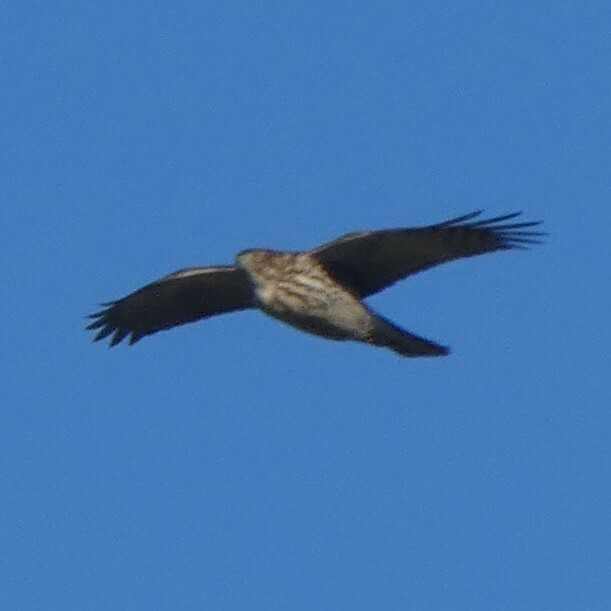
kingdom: Animalia
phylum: Chordata
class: Aves
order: Accipitriformes
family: Accipitridae
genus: Accipiter
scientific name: Accipiter striatus
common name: Sharp-shinned hawk
